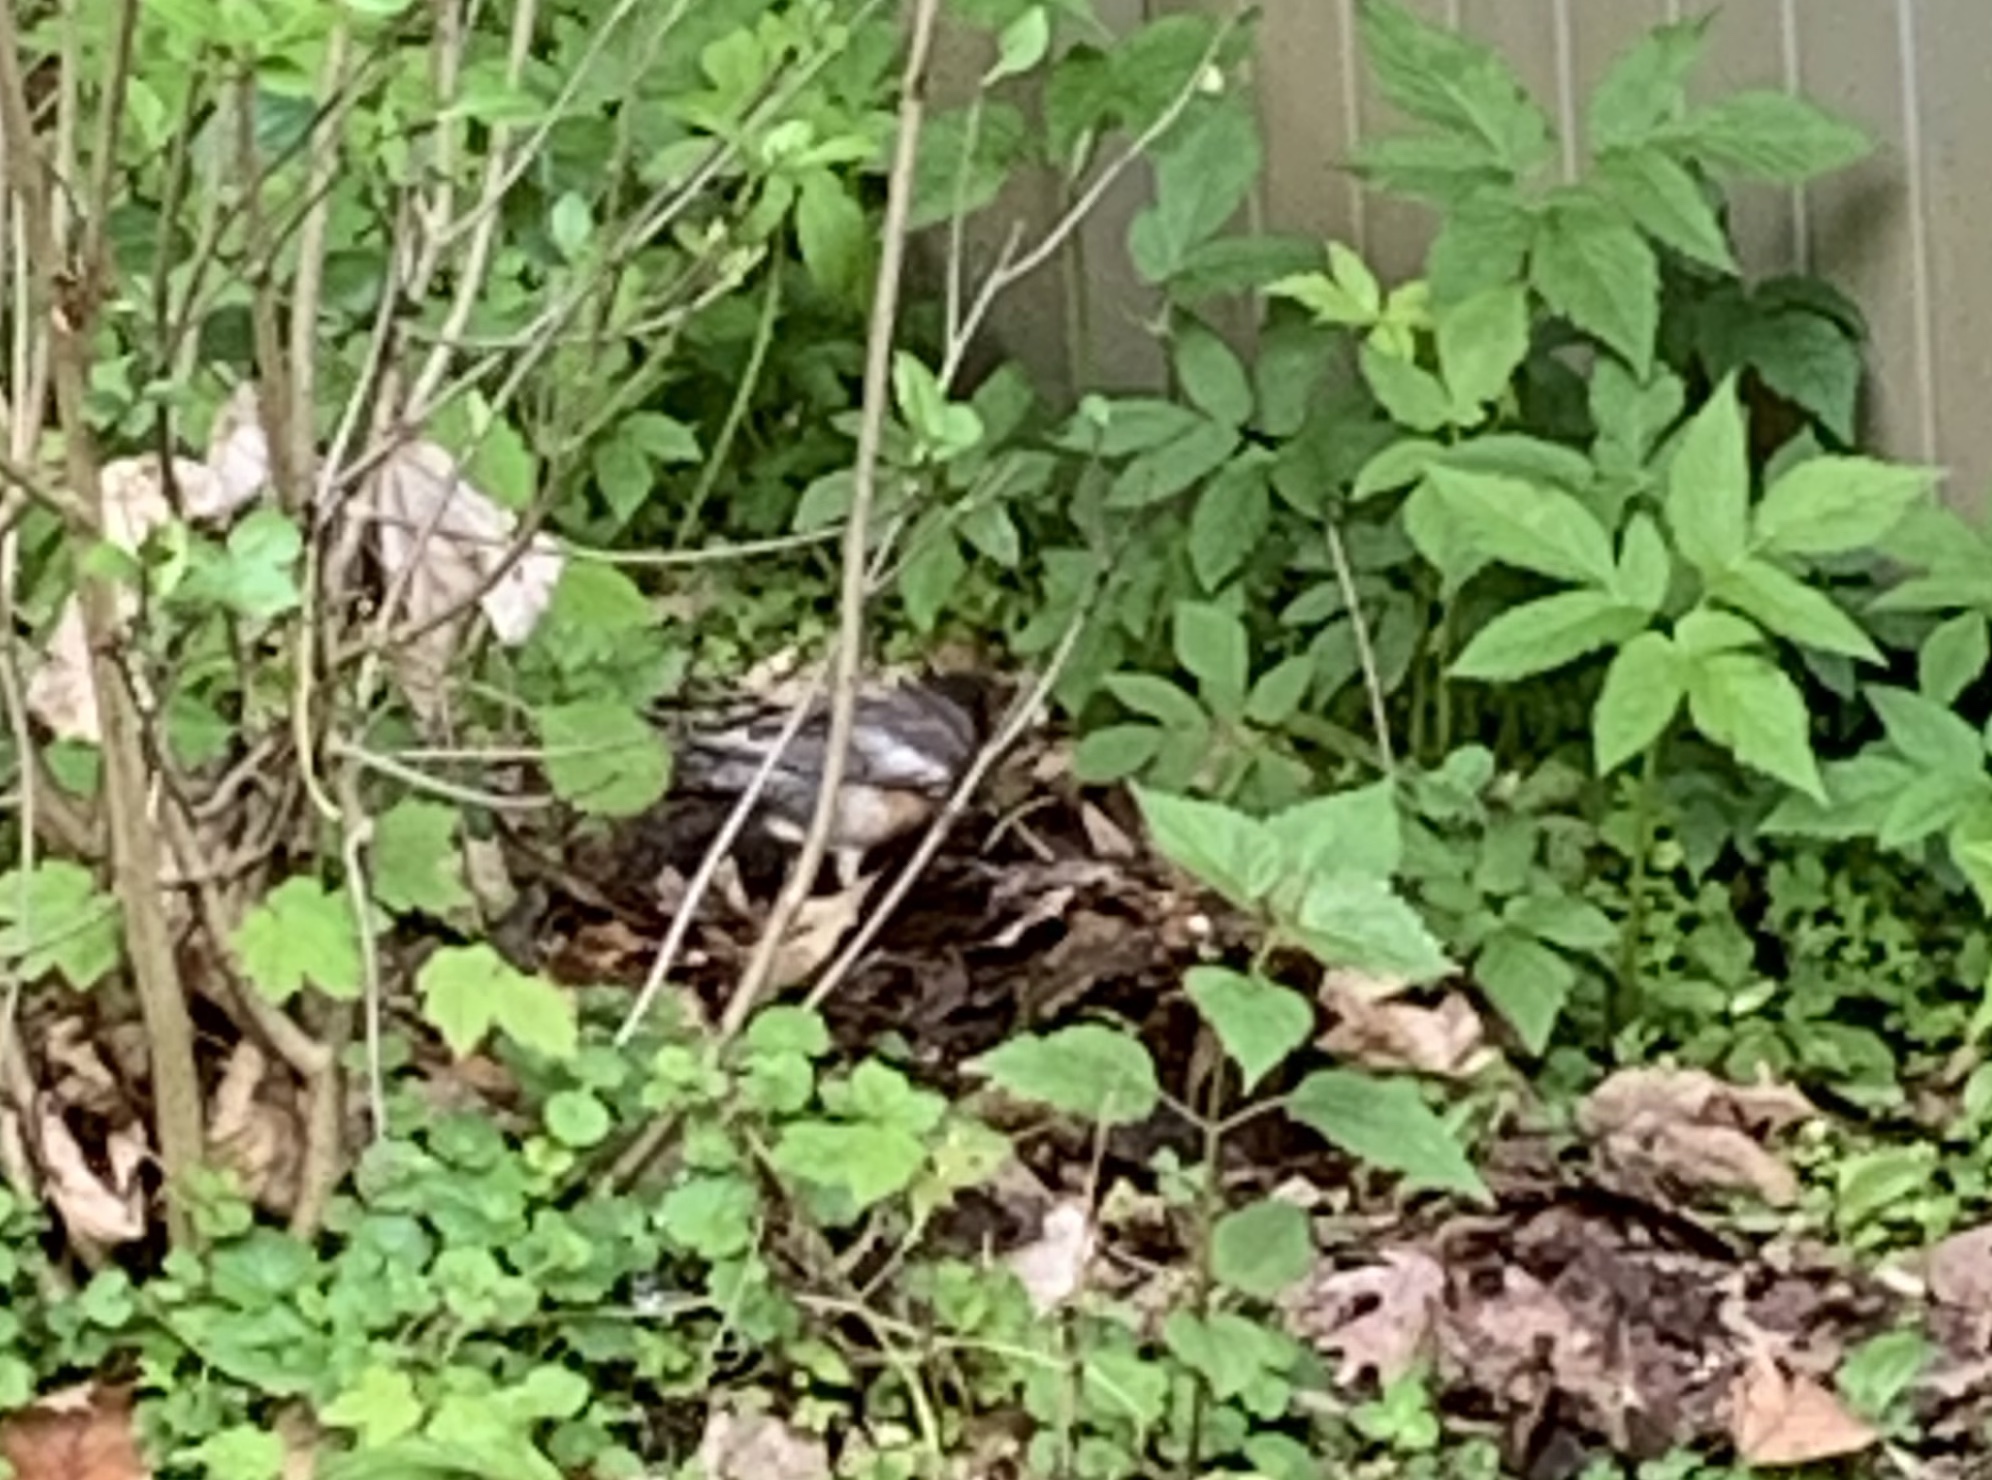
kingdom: Animalia
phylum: Chordata
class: Aves
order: Passeriformes
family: Turdidae
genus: Turdus
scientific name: Turdus migratorius
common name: American robin
